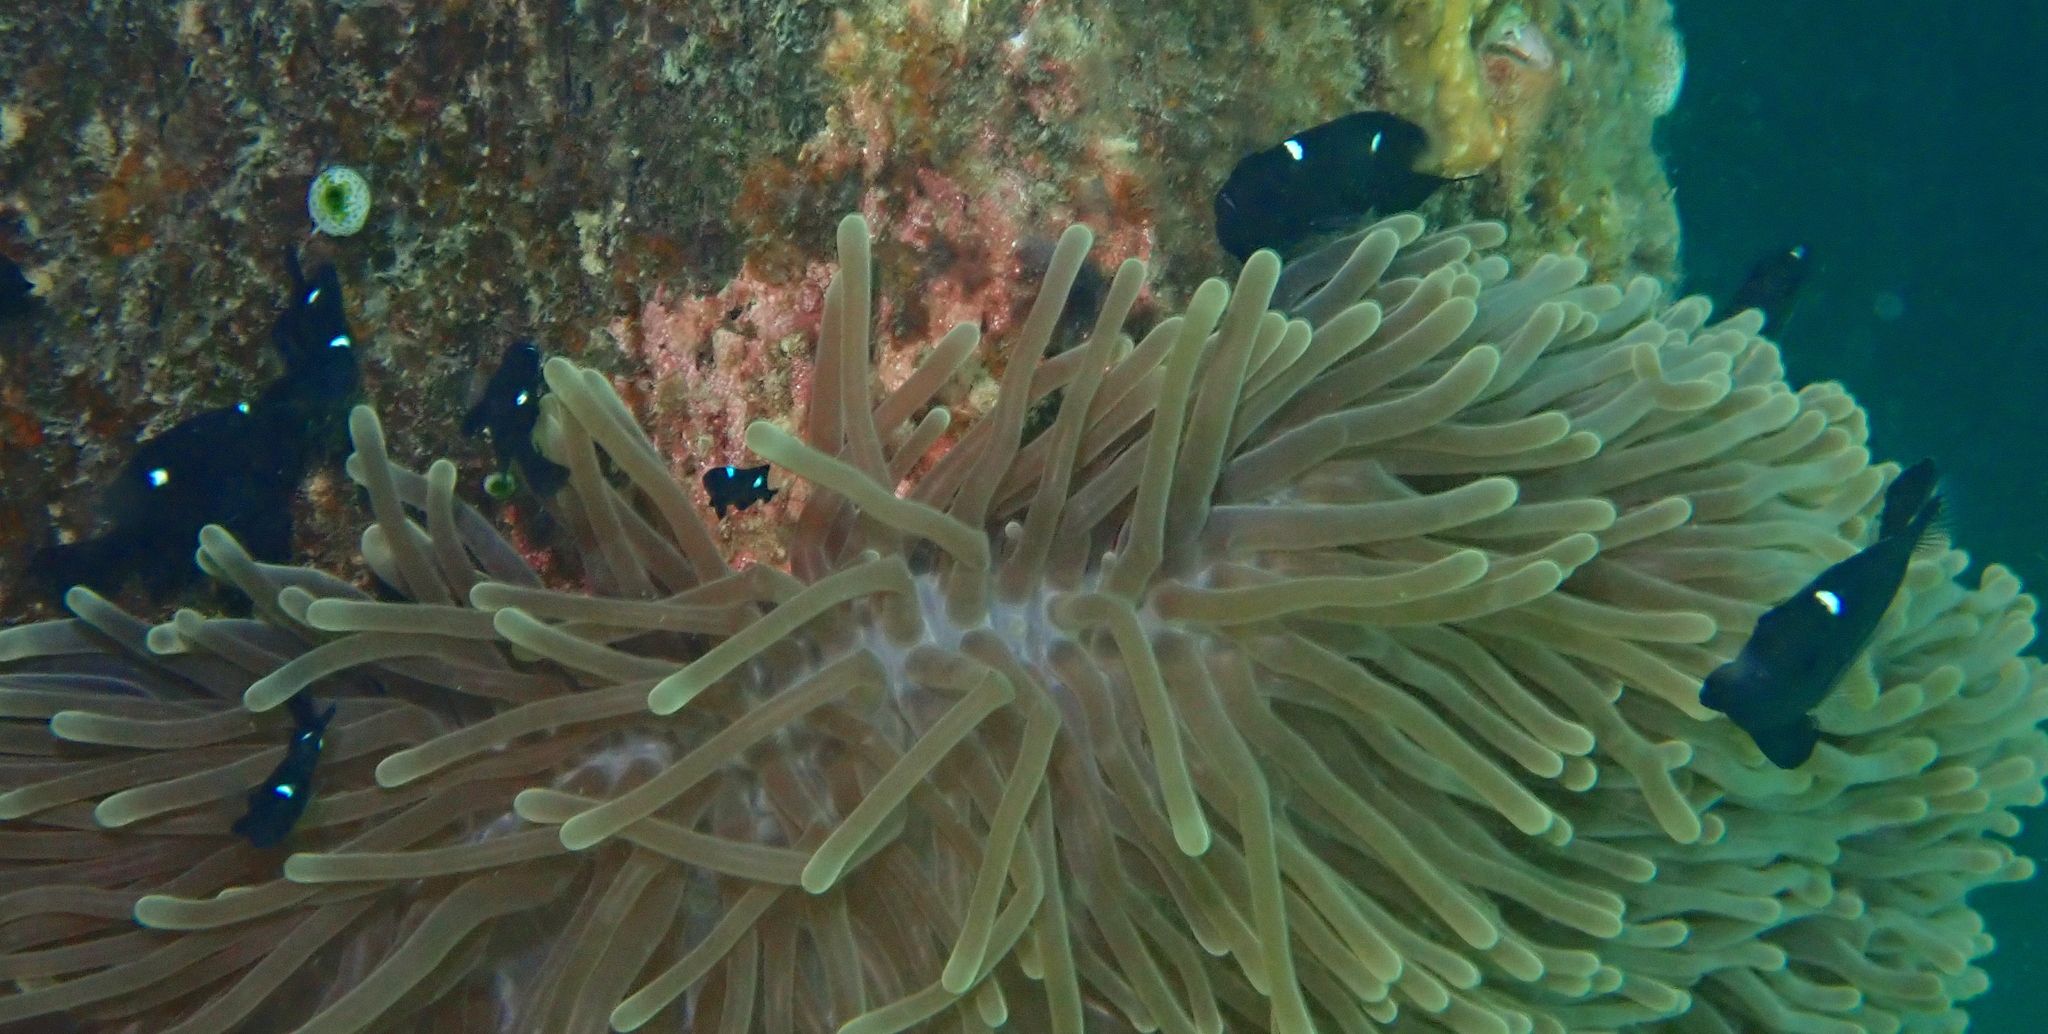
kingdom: Animalia
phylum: Chordata
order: Perciformes
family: Pomacentridae
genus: Dascyllus
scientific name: Dascyllus trimaculatus
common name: Threespot dascyllus
